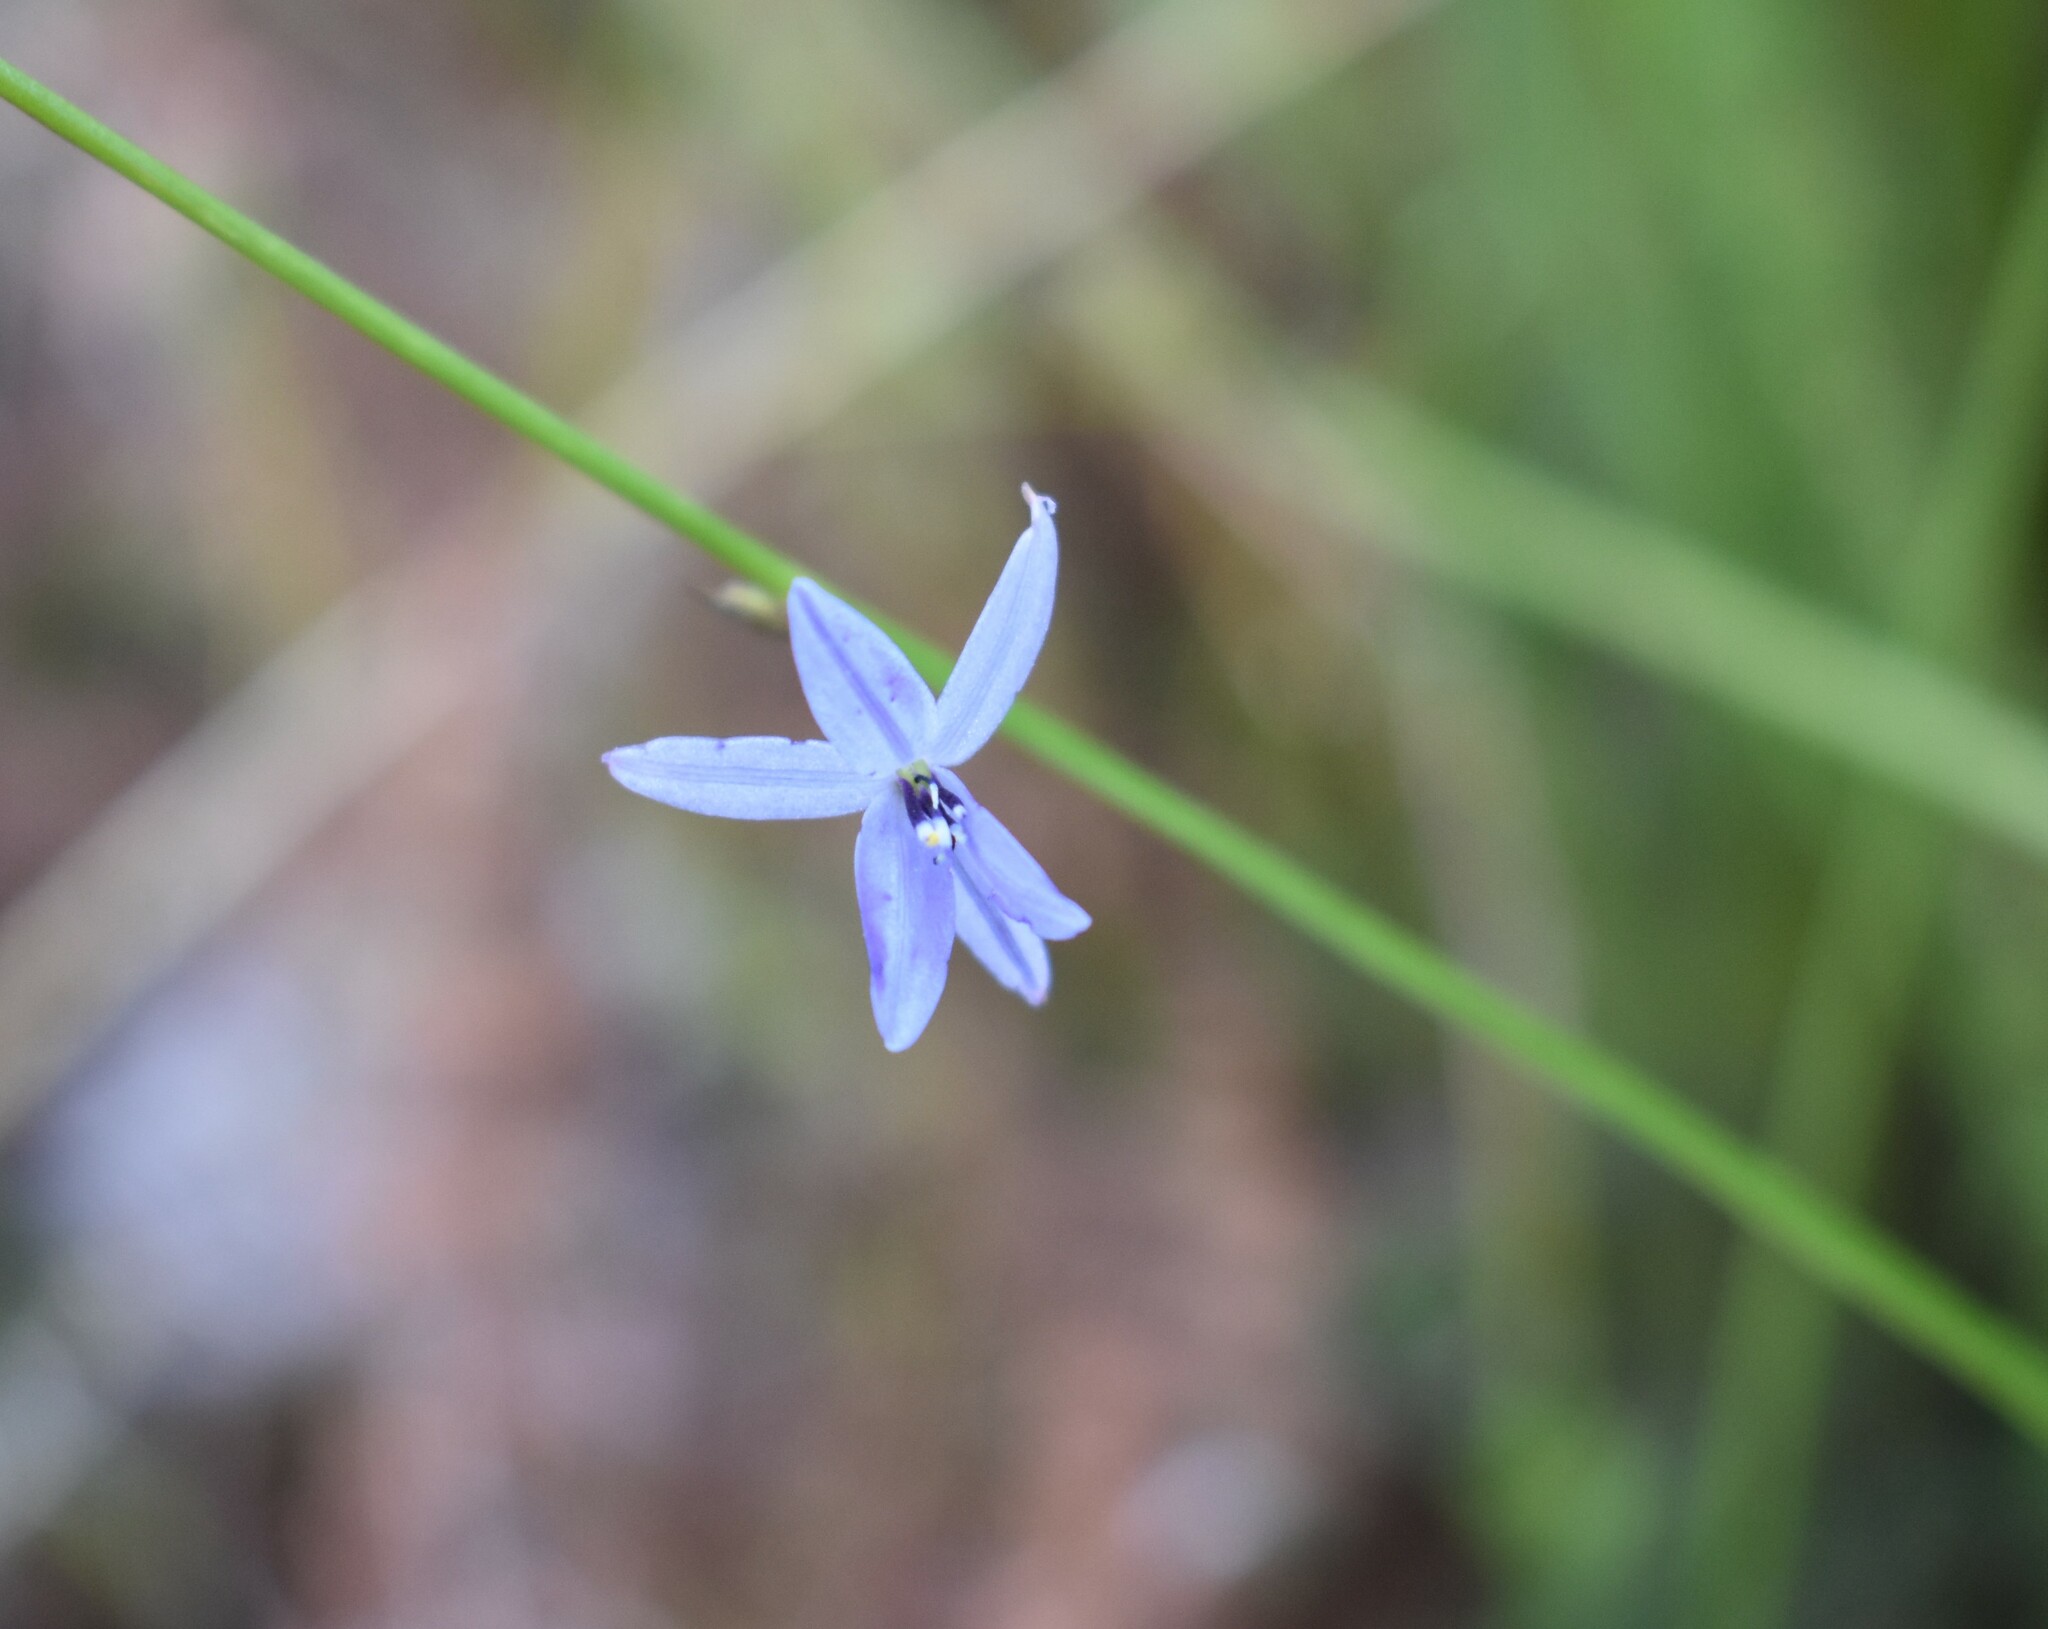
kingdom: Plantae
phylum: Tracheophyta
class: Liliopsida
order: Asparagales
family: Asphodelaceae
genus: Caesia
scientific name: Caesia contorta
